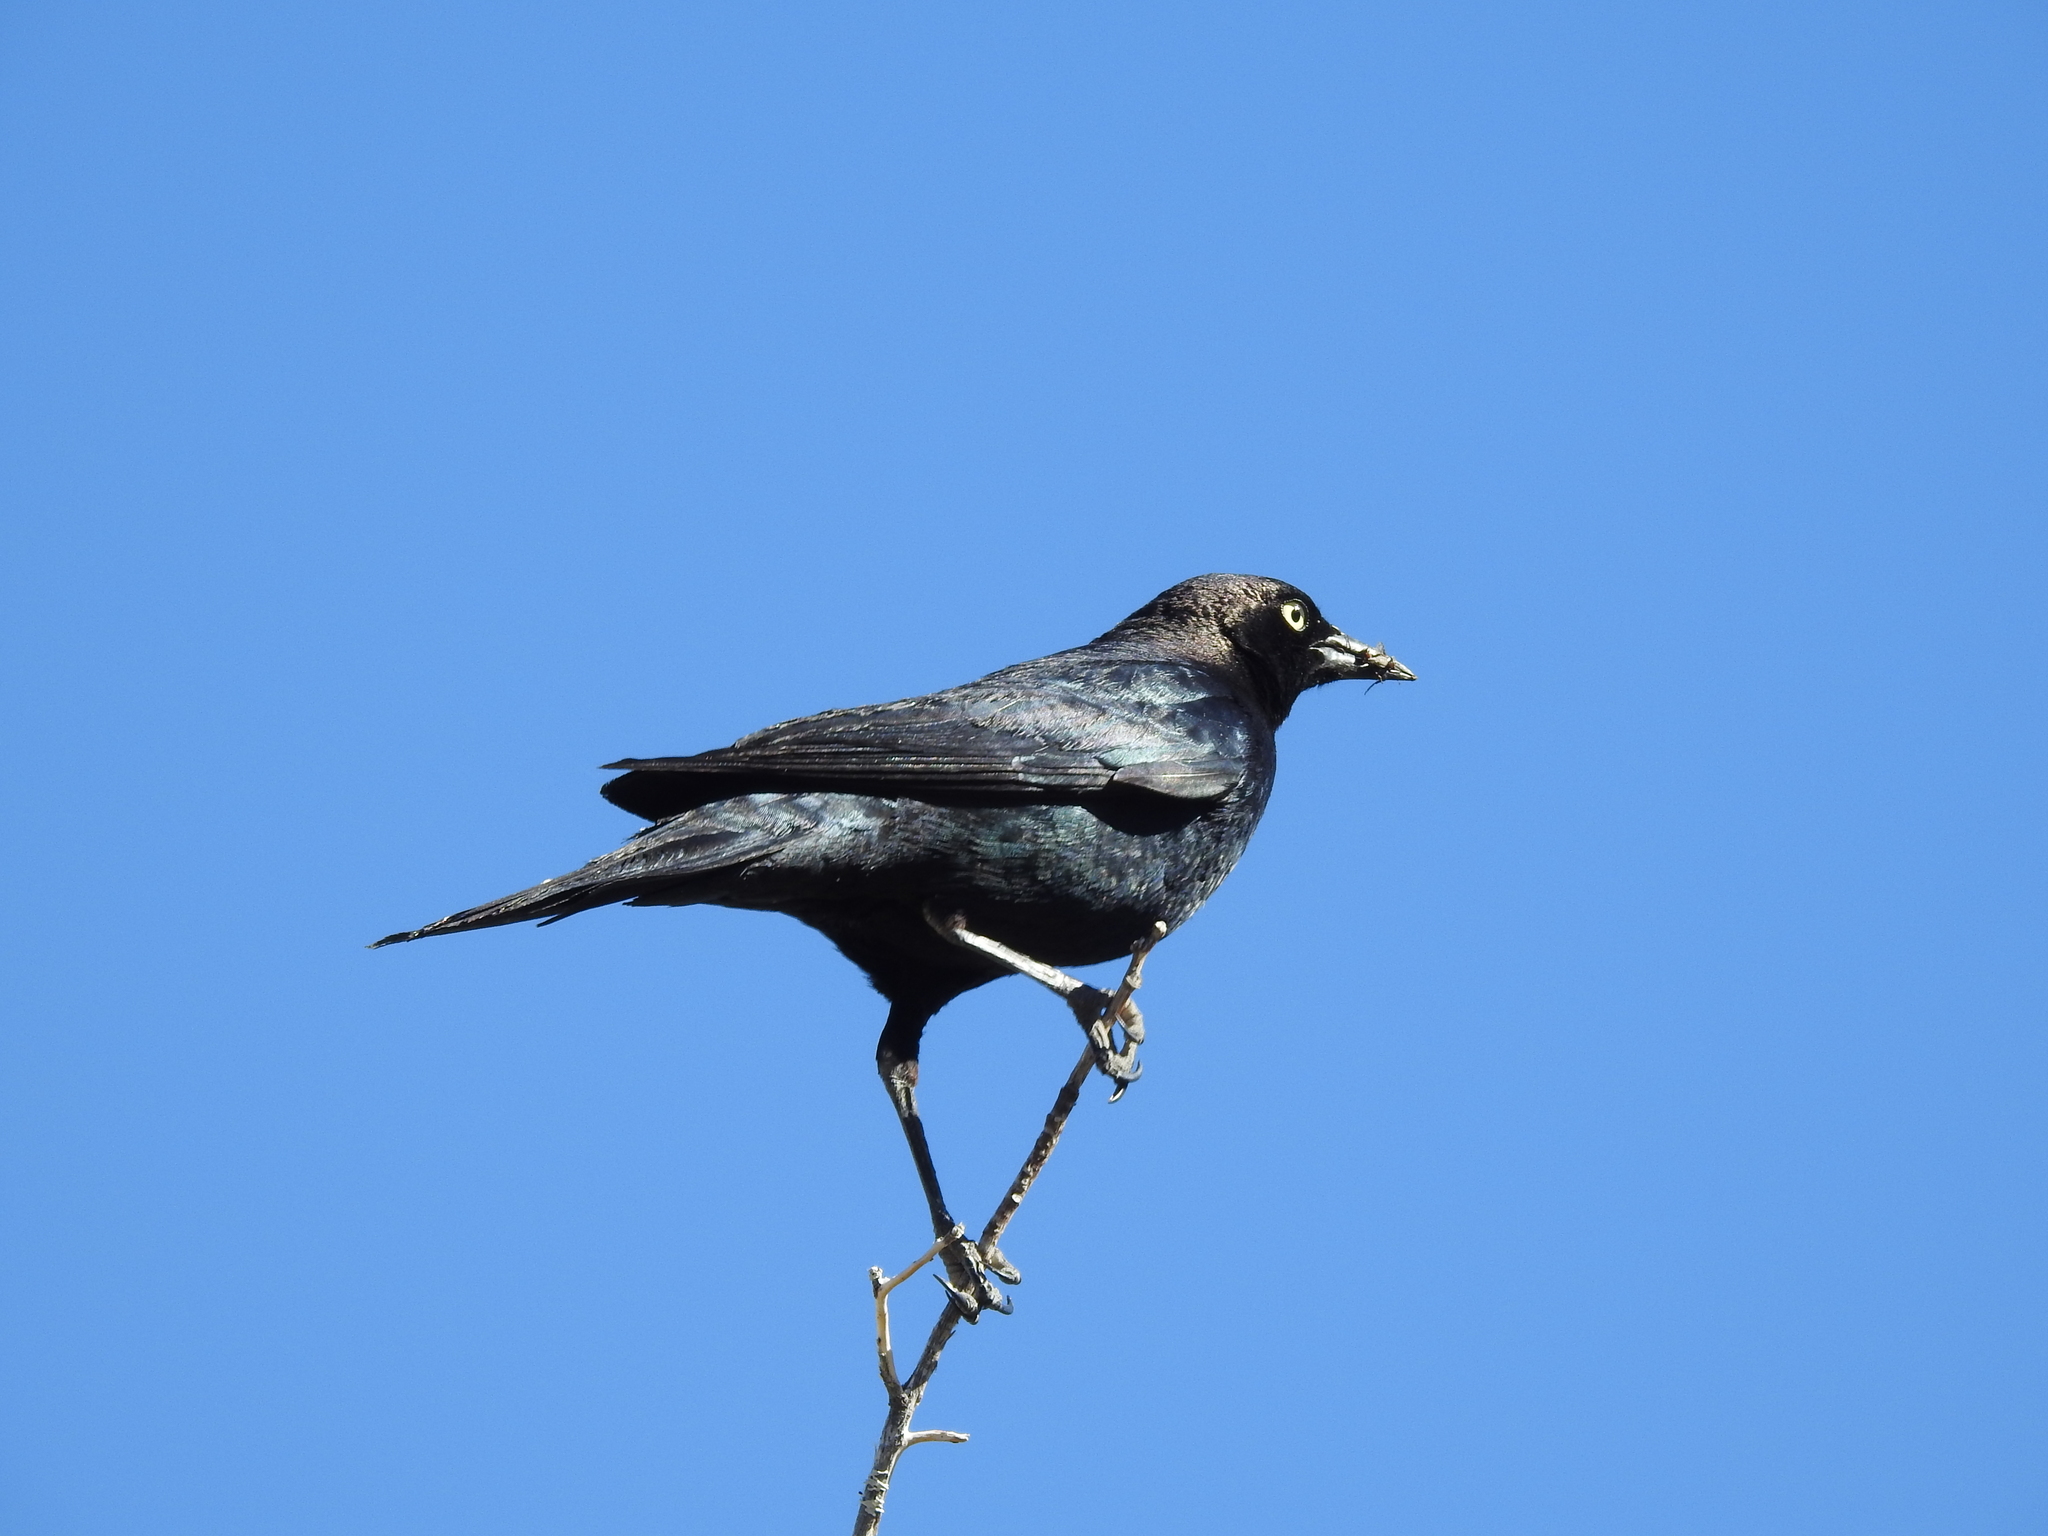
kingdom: Animalia
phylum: Chordata
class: Aves
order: Passeriformes
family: Icteridae
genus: Euphagus
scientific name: Euphagus cyanocephalus
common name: Brewer's blackbird
